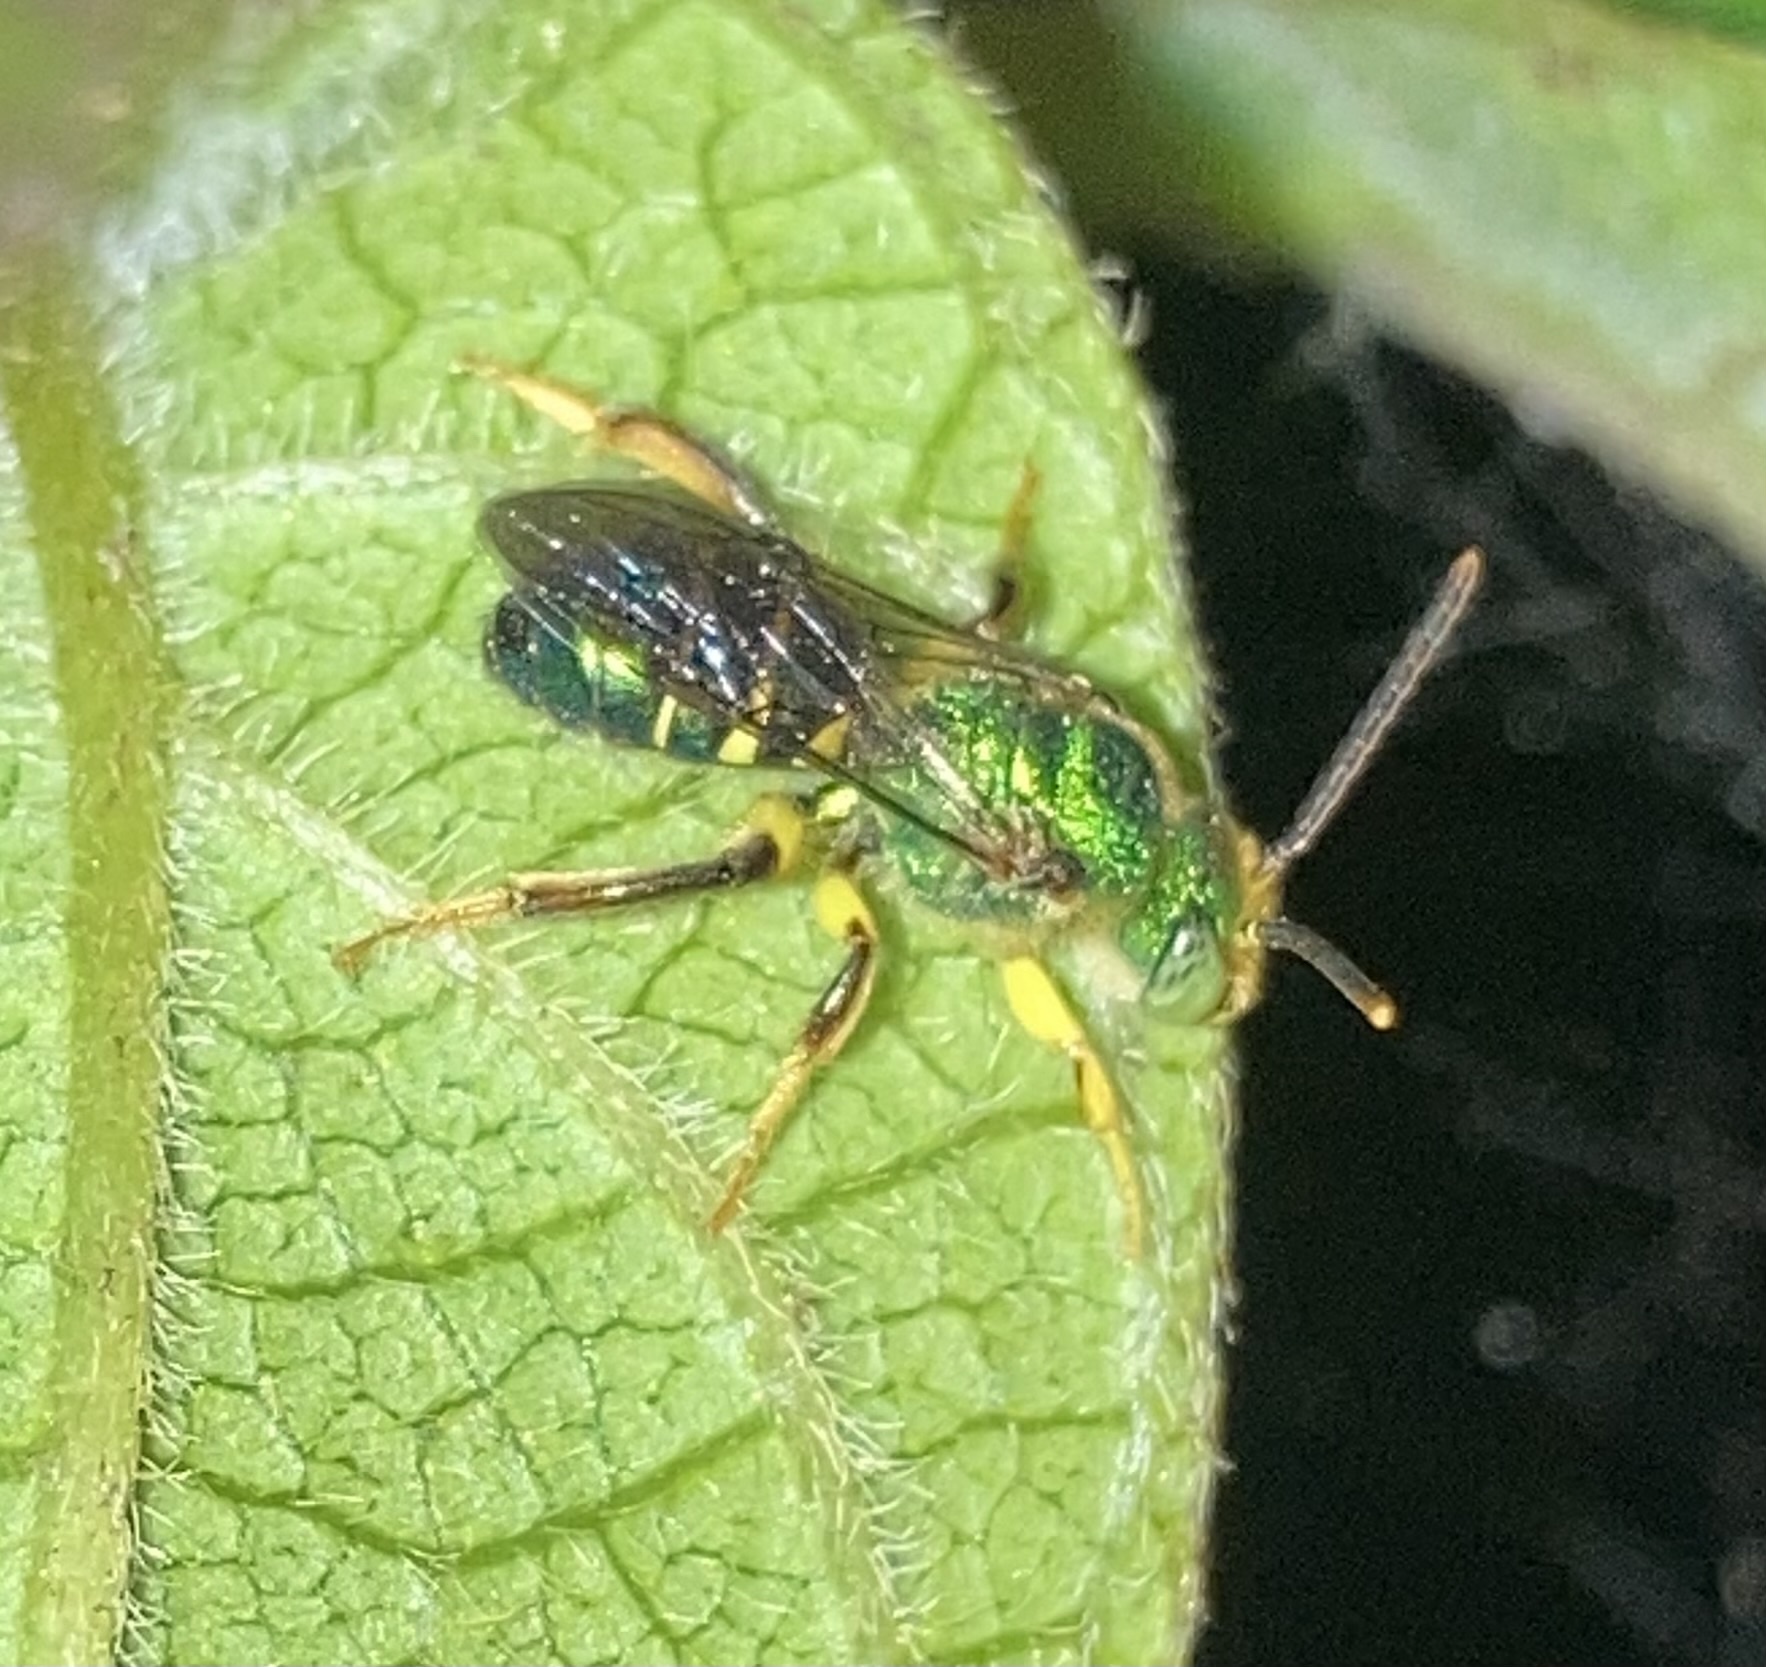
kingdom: Animalia
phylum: Arthropoda
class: Insecta
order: Hymenoptera
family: Halictidae
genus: Agapostemon
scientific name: Agapostemon poeyi
